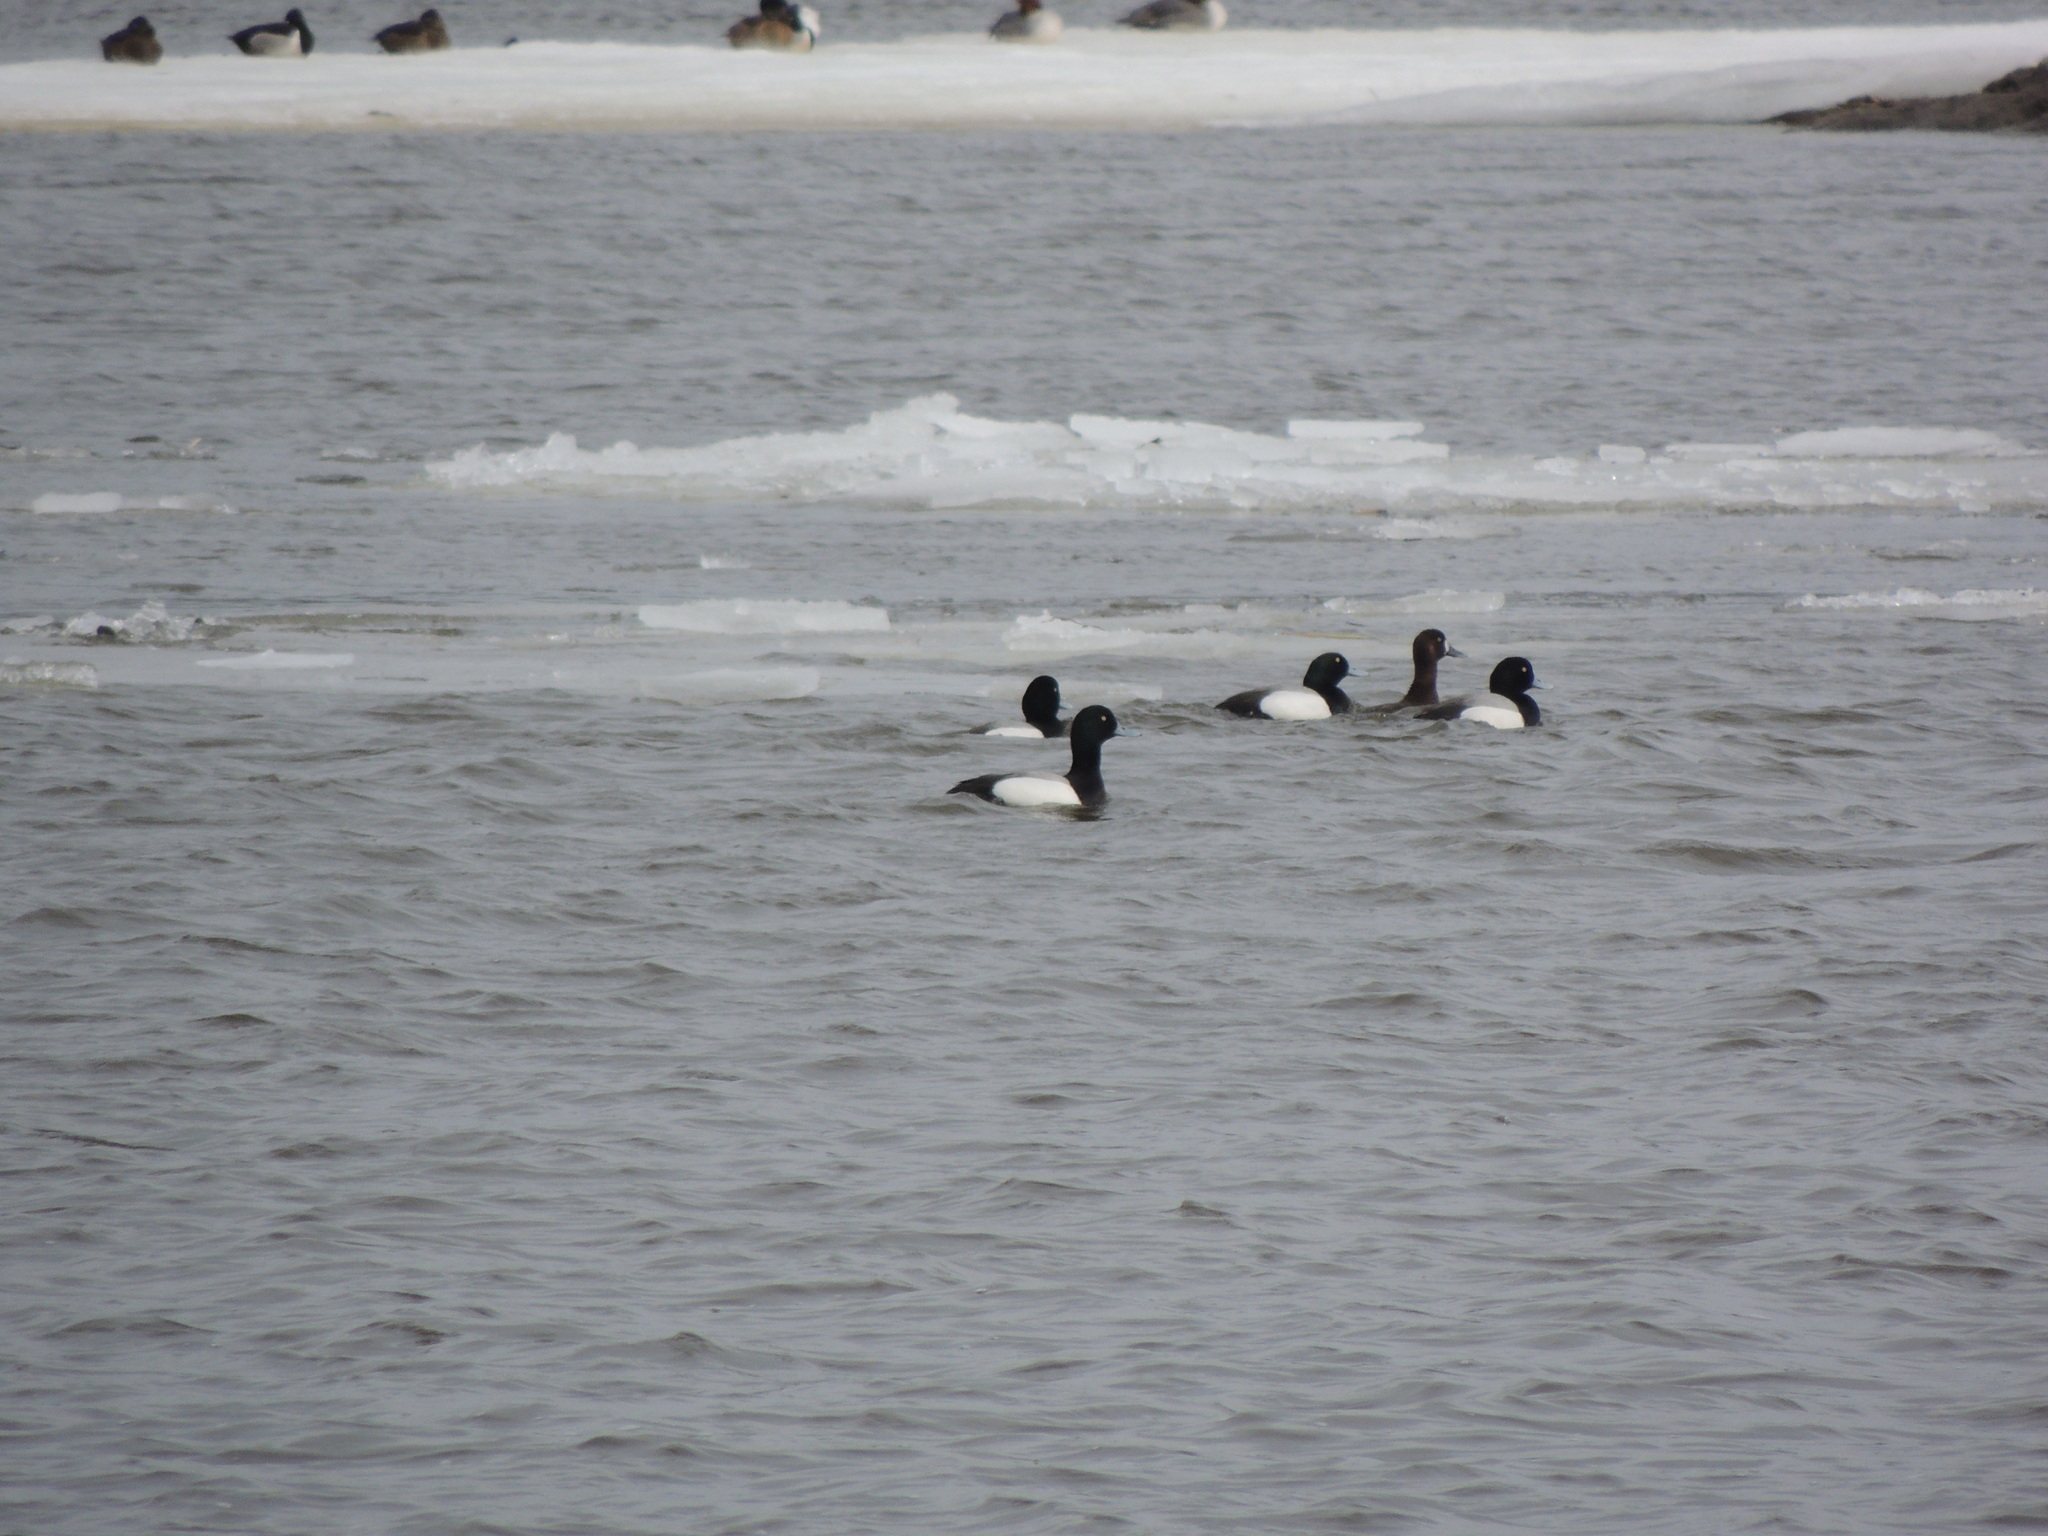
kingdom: Animalia
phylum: Chordata
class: Aves
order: Anseriformes
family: Anatidae
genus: Aythya
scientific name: Aythya marila
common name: Greater scaup
